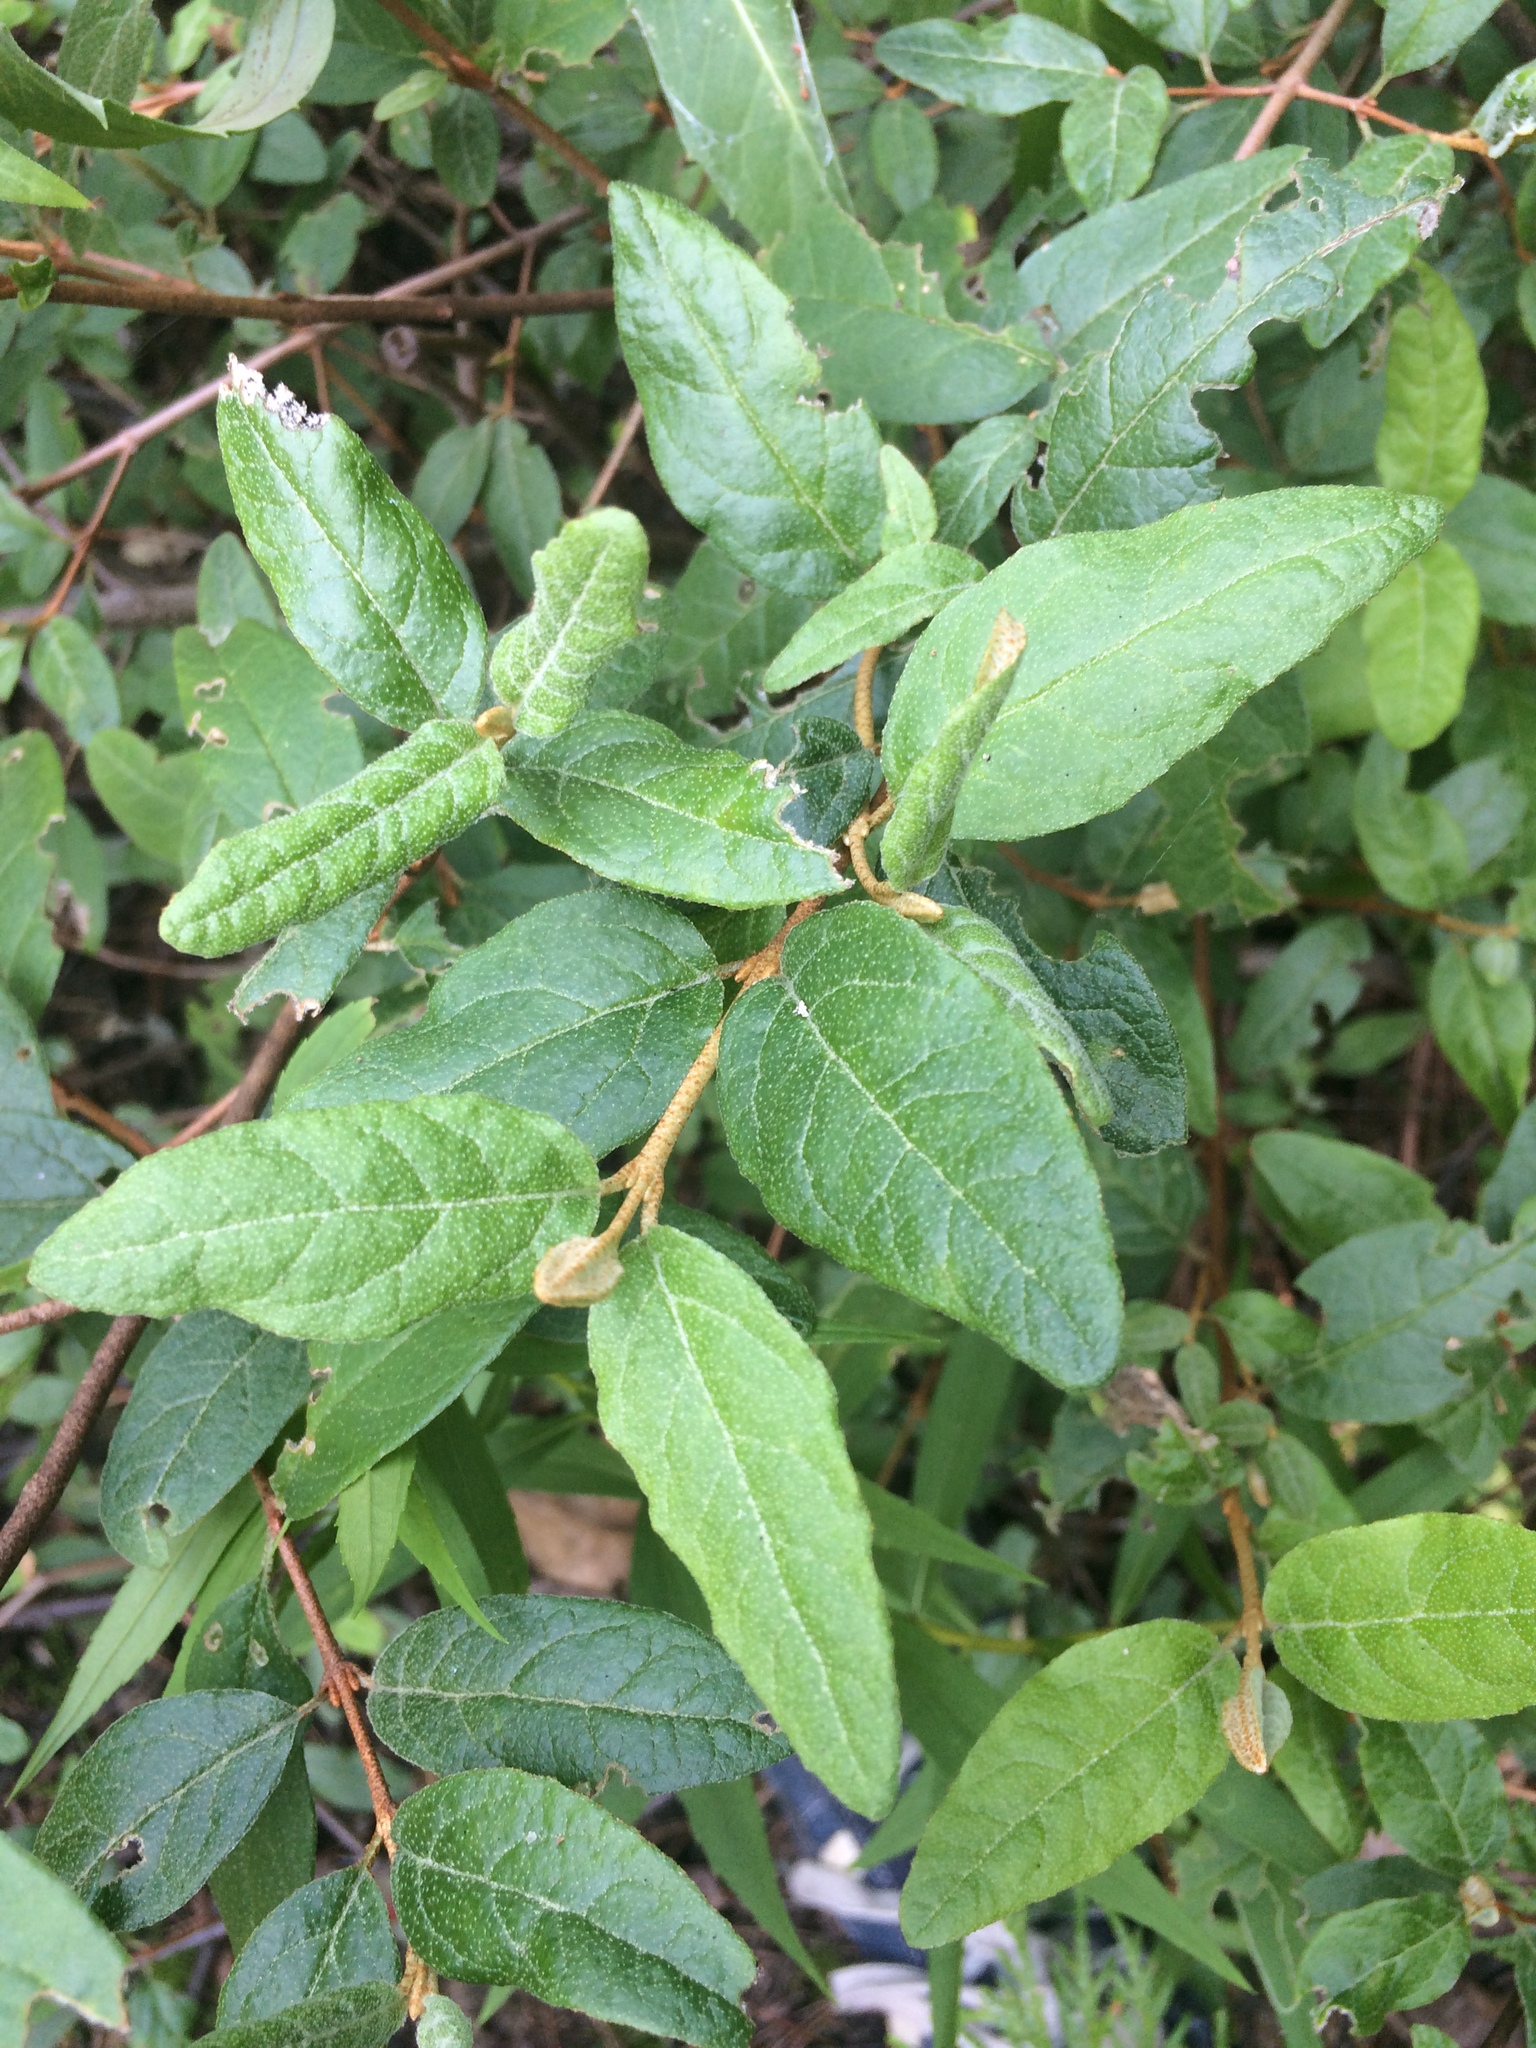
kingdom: Plantae
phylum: Tracheophyta
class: Magnoliopsida
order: Rosales
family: Elaeagnaceae
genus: Shepherdia
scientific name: Shepherdia canadensis
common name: Soapberry
